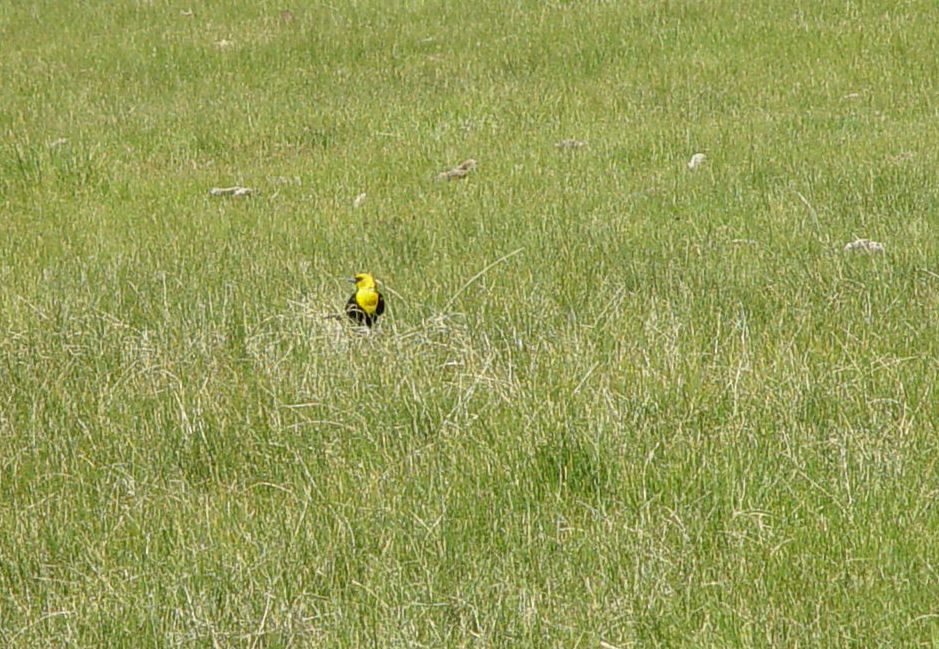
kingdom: Animalia
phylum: Chordata
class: Aves
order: Passeriformes
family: Icteridae
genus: Xanthocephalus
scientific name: Xanthocephalus xanthocephalus
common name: Yellow-headed blackbird
